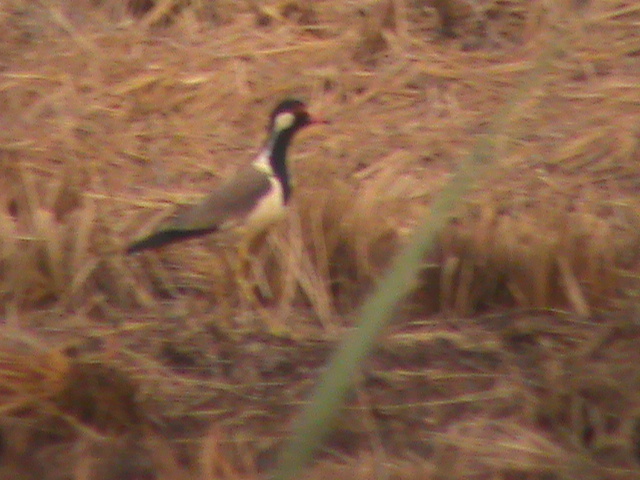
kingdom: Animalia
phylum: Chordata
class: Aves
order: Charadriiformes
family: Charadriidae
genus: Vanellus
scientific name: Vanellus indicus
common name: Red-wattled lapwing
